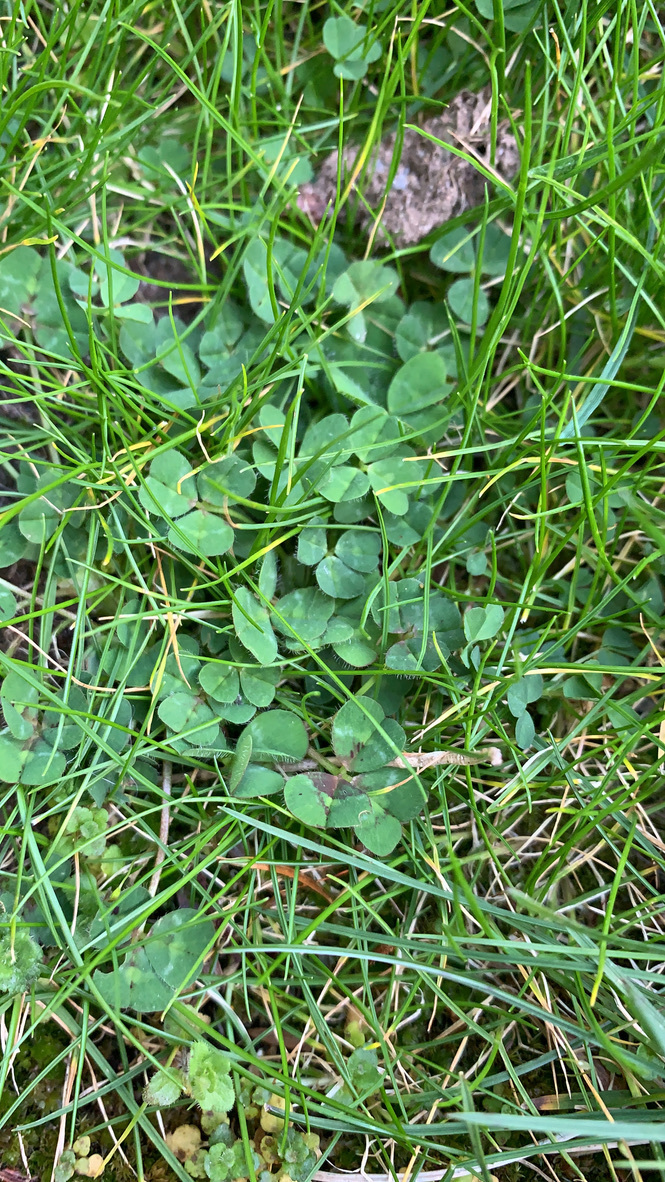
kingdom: Plantae
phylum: Tracheophyta
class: Magnoliopsida
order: Fabales
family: Fabaceae
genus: Trifolium
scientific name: Trifolium repens
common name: White clover
